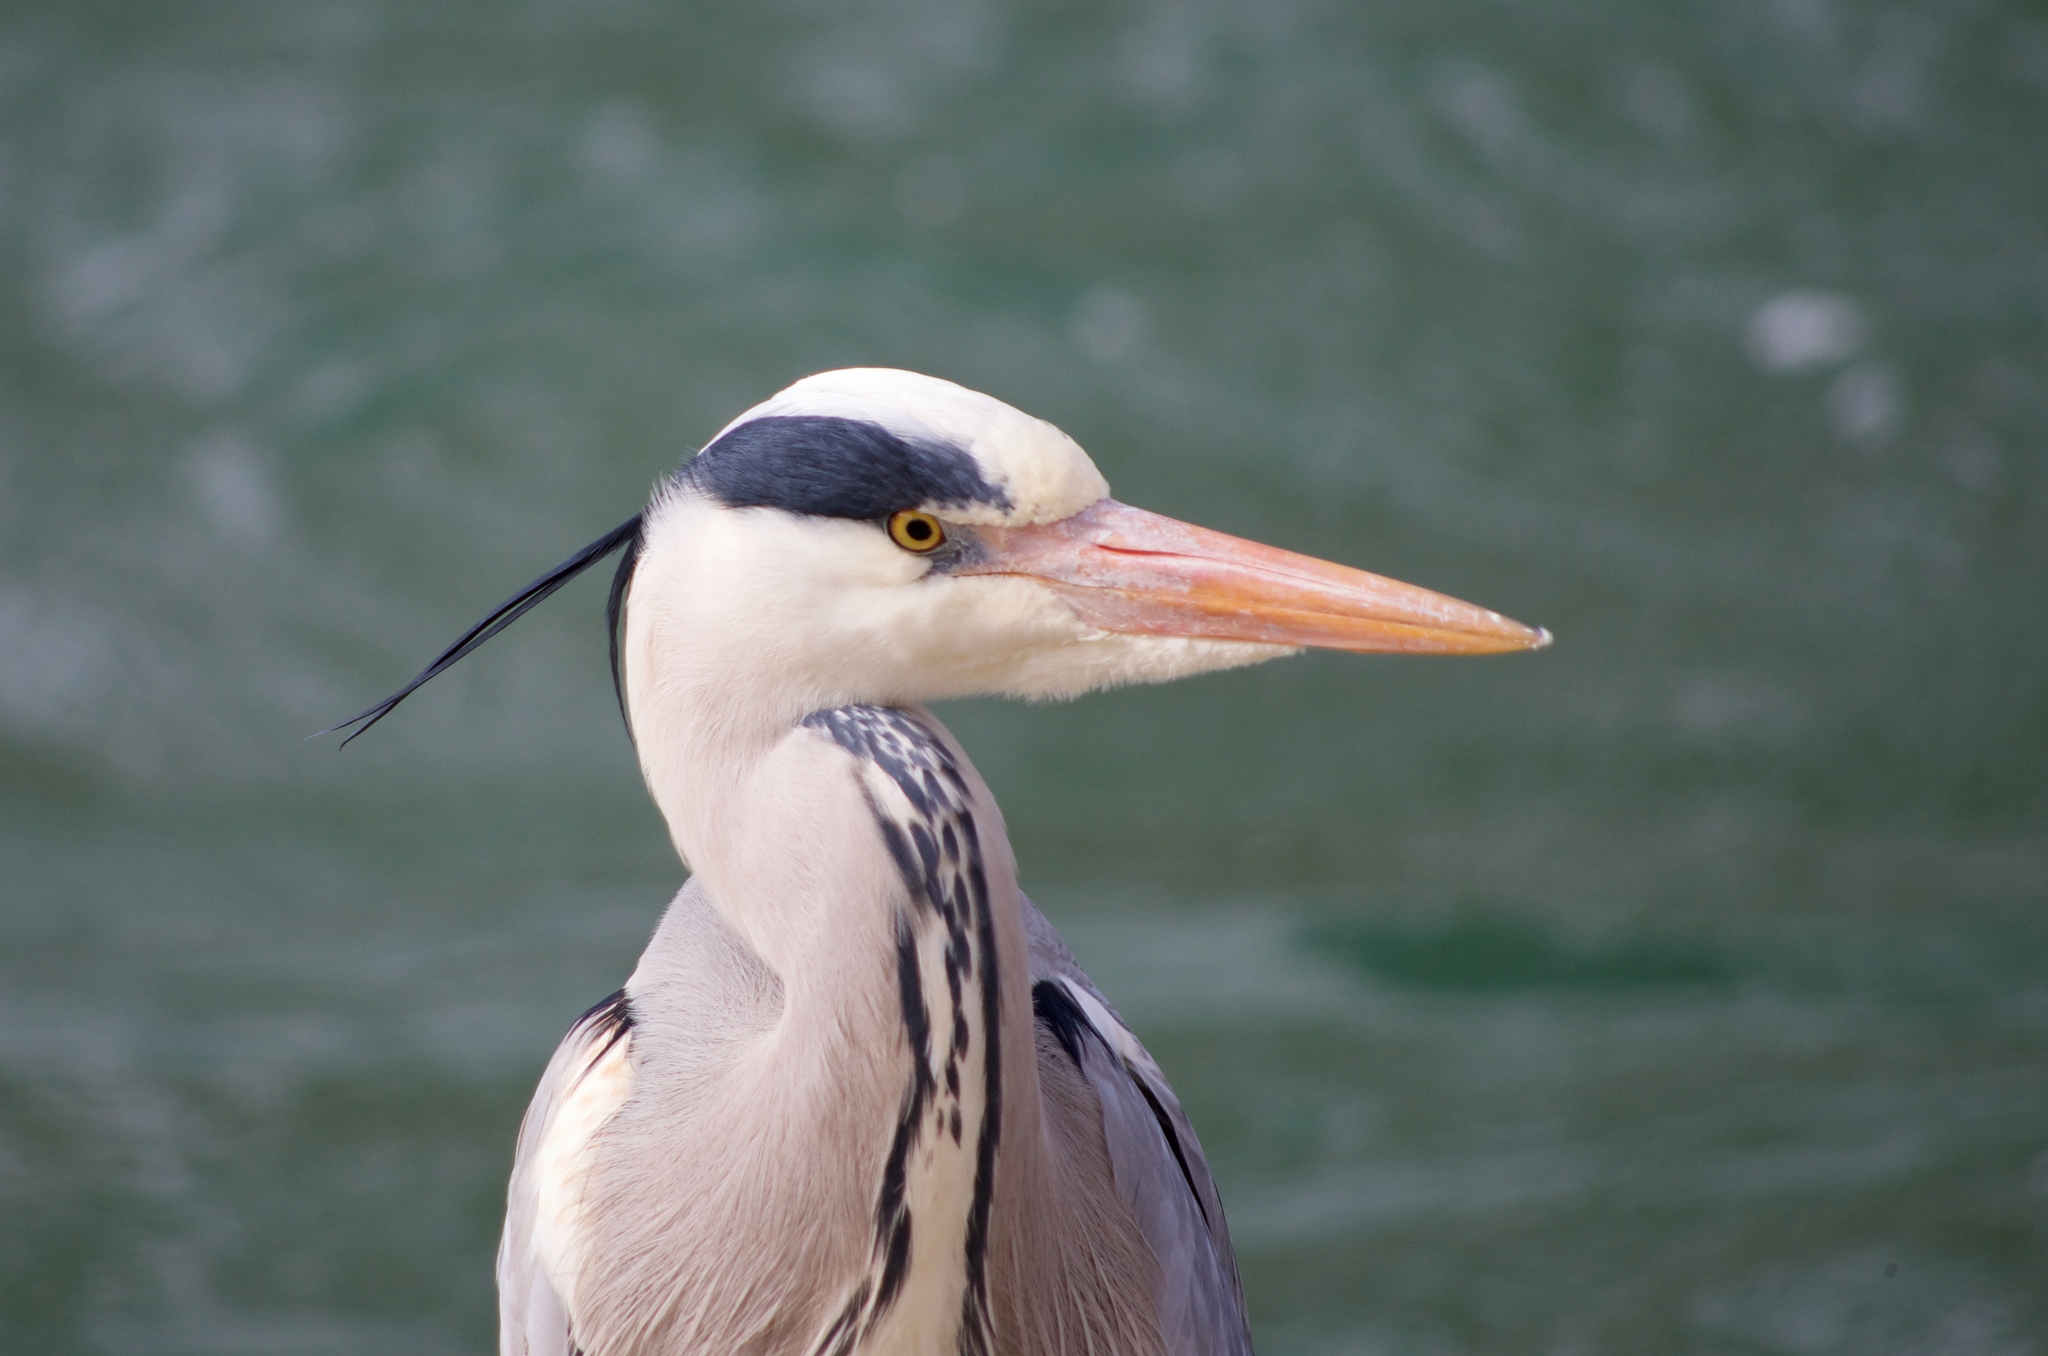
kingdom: Animalia
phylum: Chordata
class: Aves
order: Pelecaniformes
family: Ardeidae
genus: Ardea
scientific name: Ardea cinerea
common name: Grey heron
